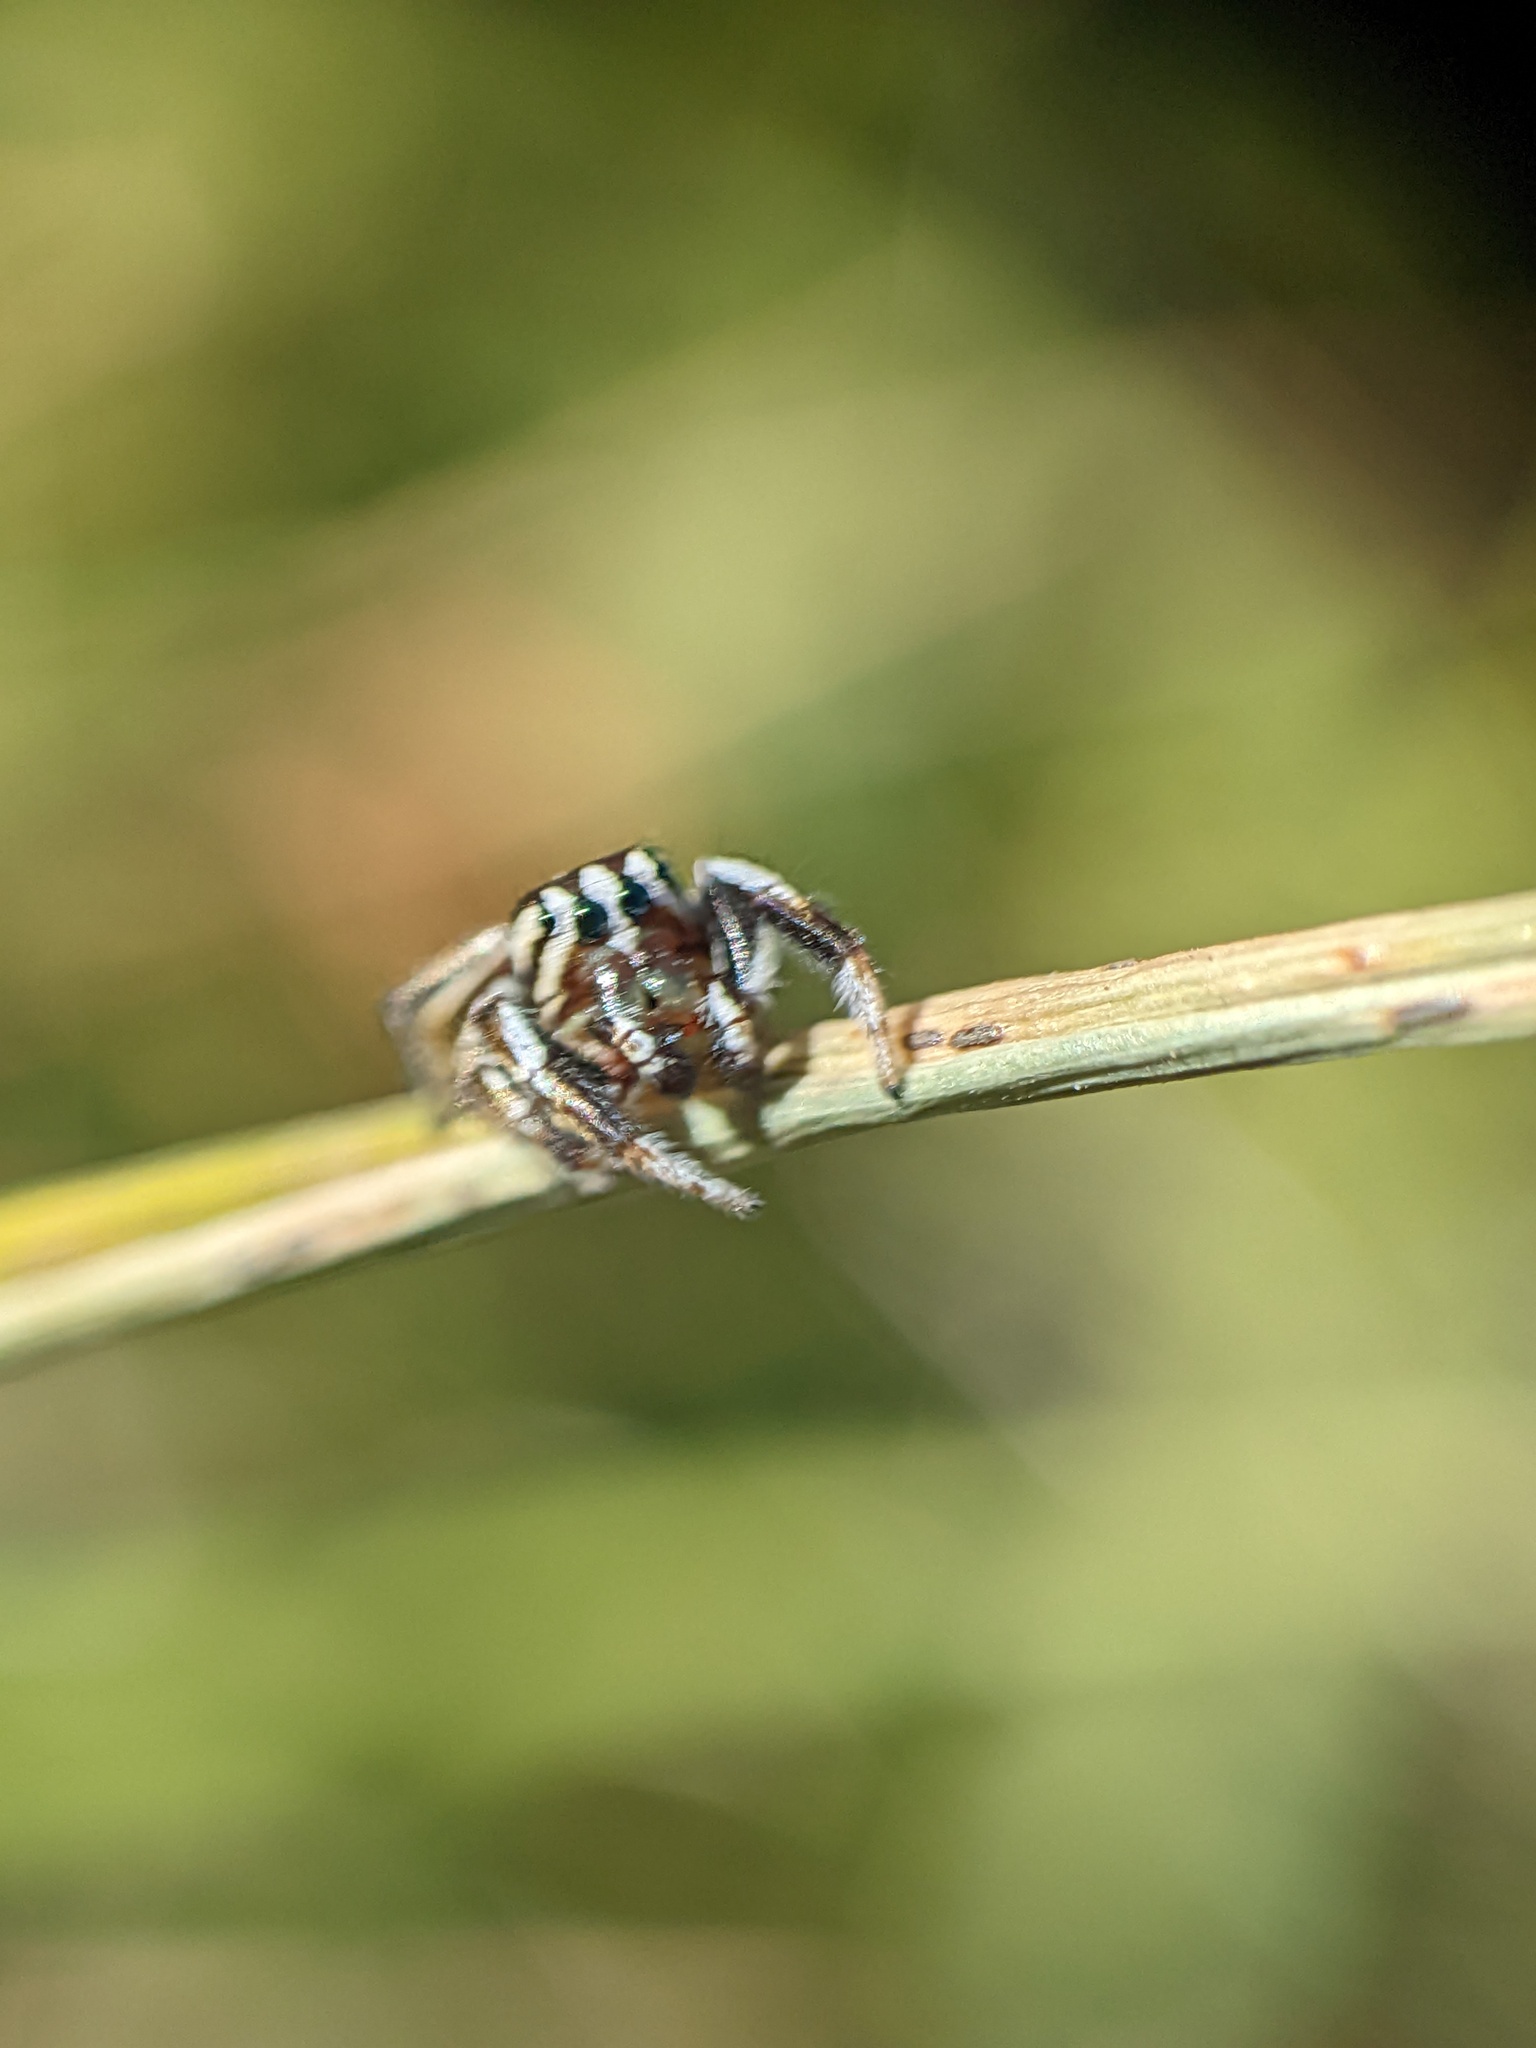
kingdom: Animalia
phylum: Arthropoda
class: Arachnida
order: Araneae
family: Salticidae
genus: Pelegrina
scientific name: Pelegrina exigua
